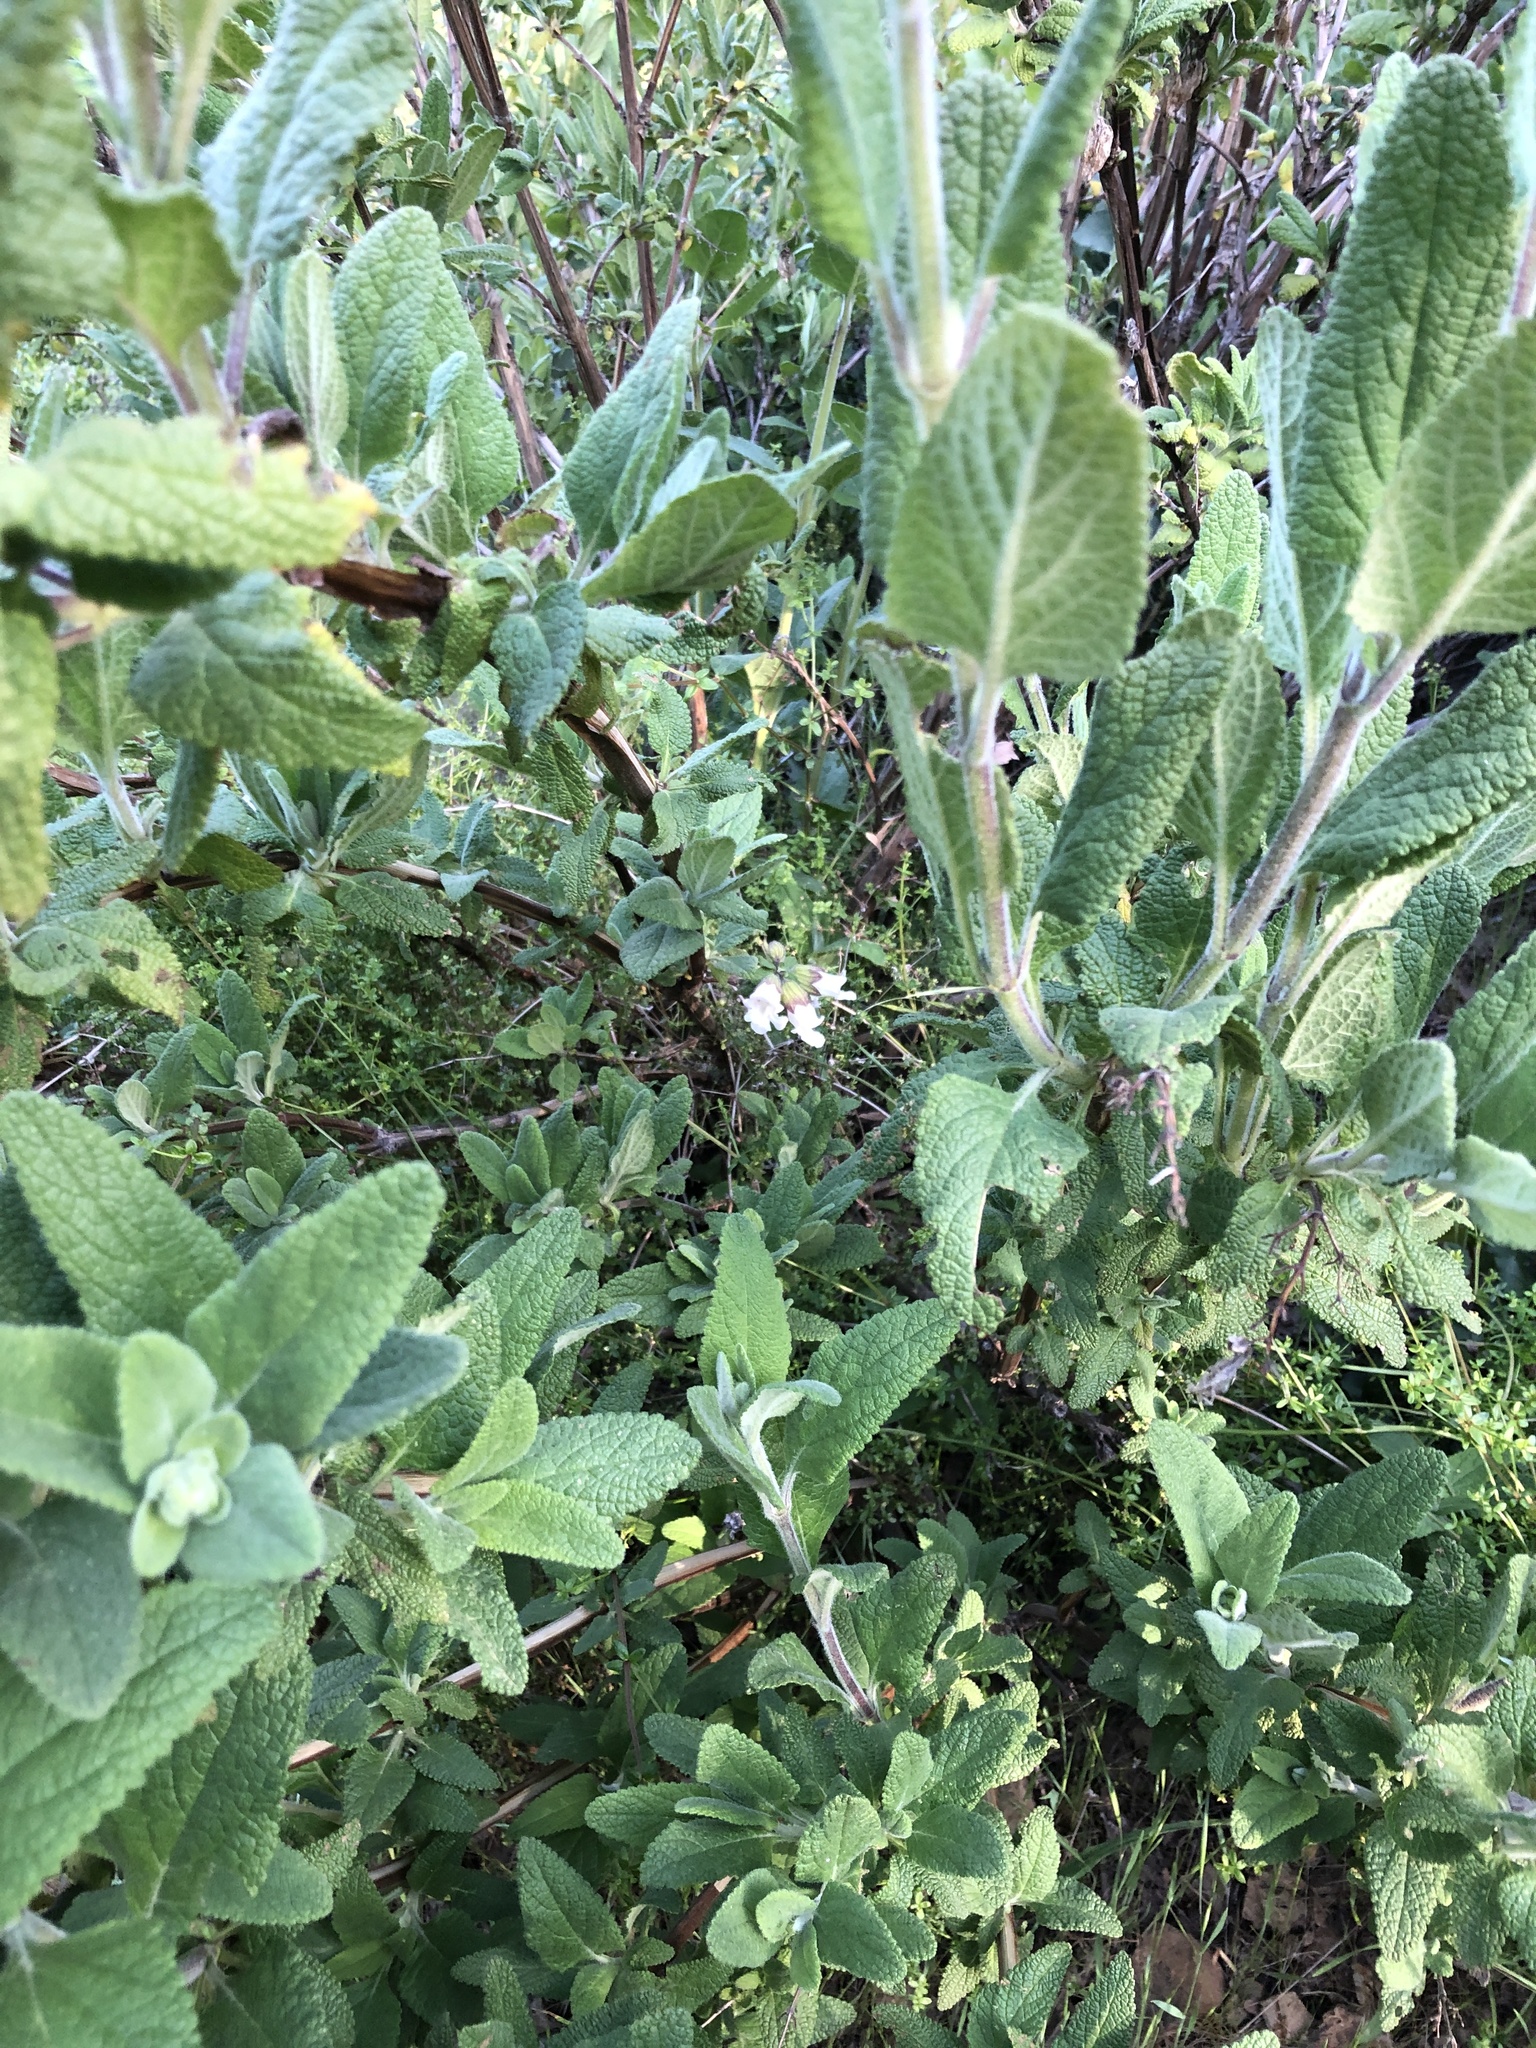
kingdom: Plantae
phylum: Tracheophyta
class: Magnoliopsida
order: Lamiales
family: Lamiaceae
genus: Lepechinia
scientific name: Lepechinia calycina
